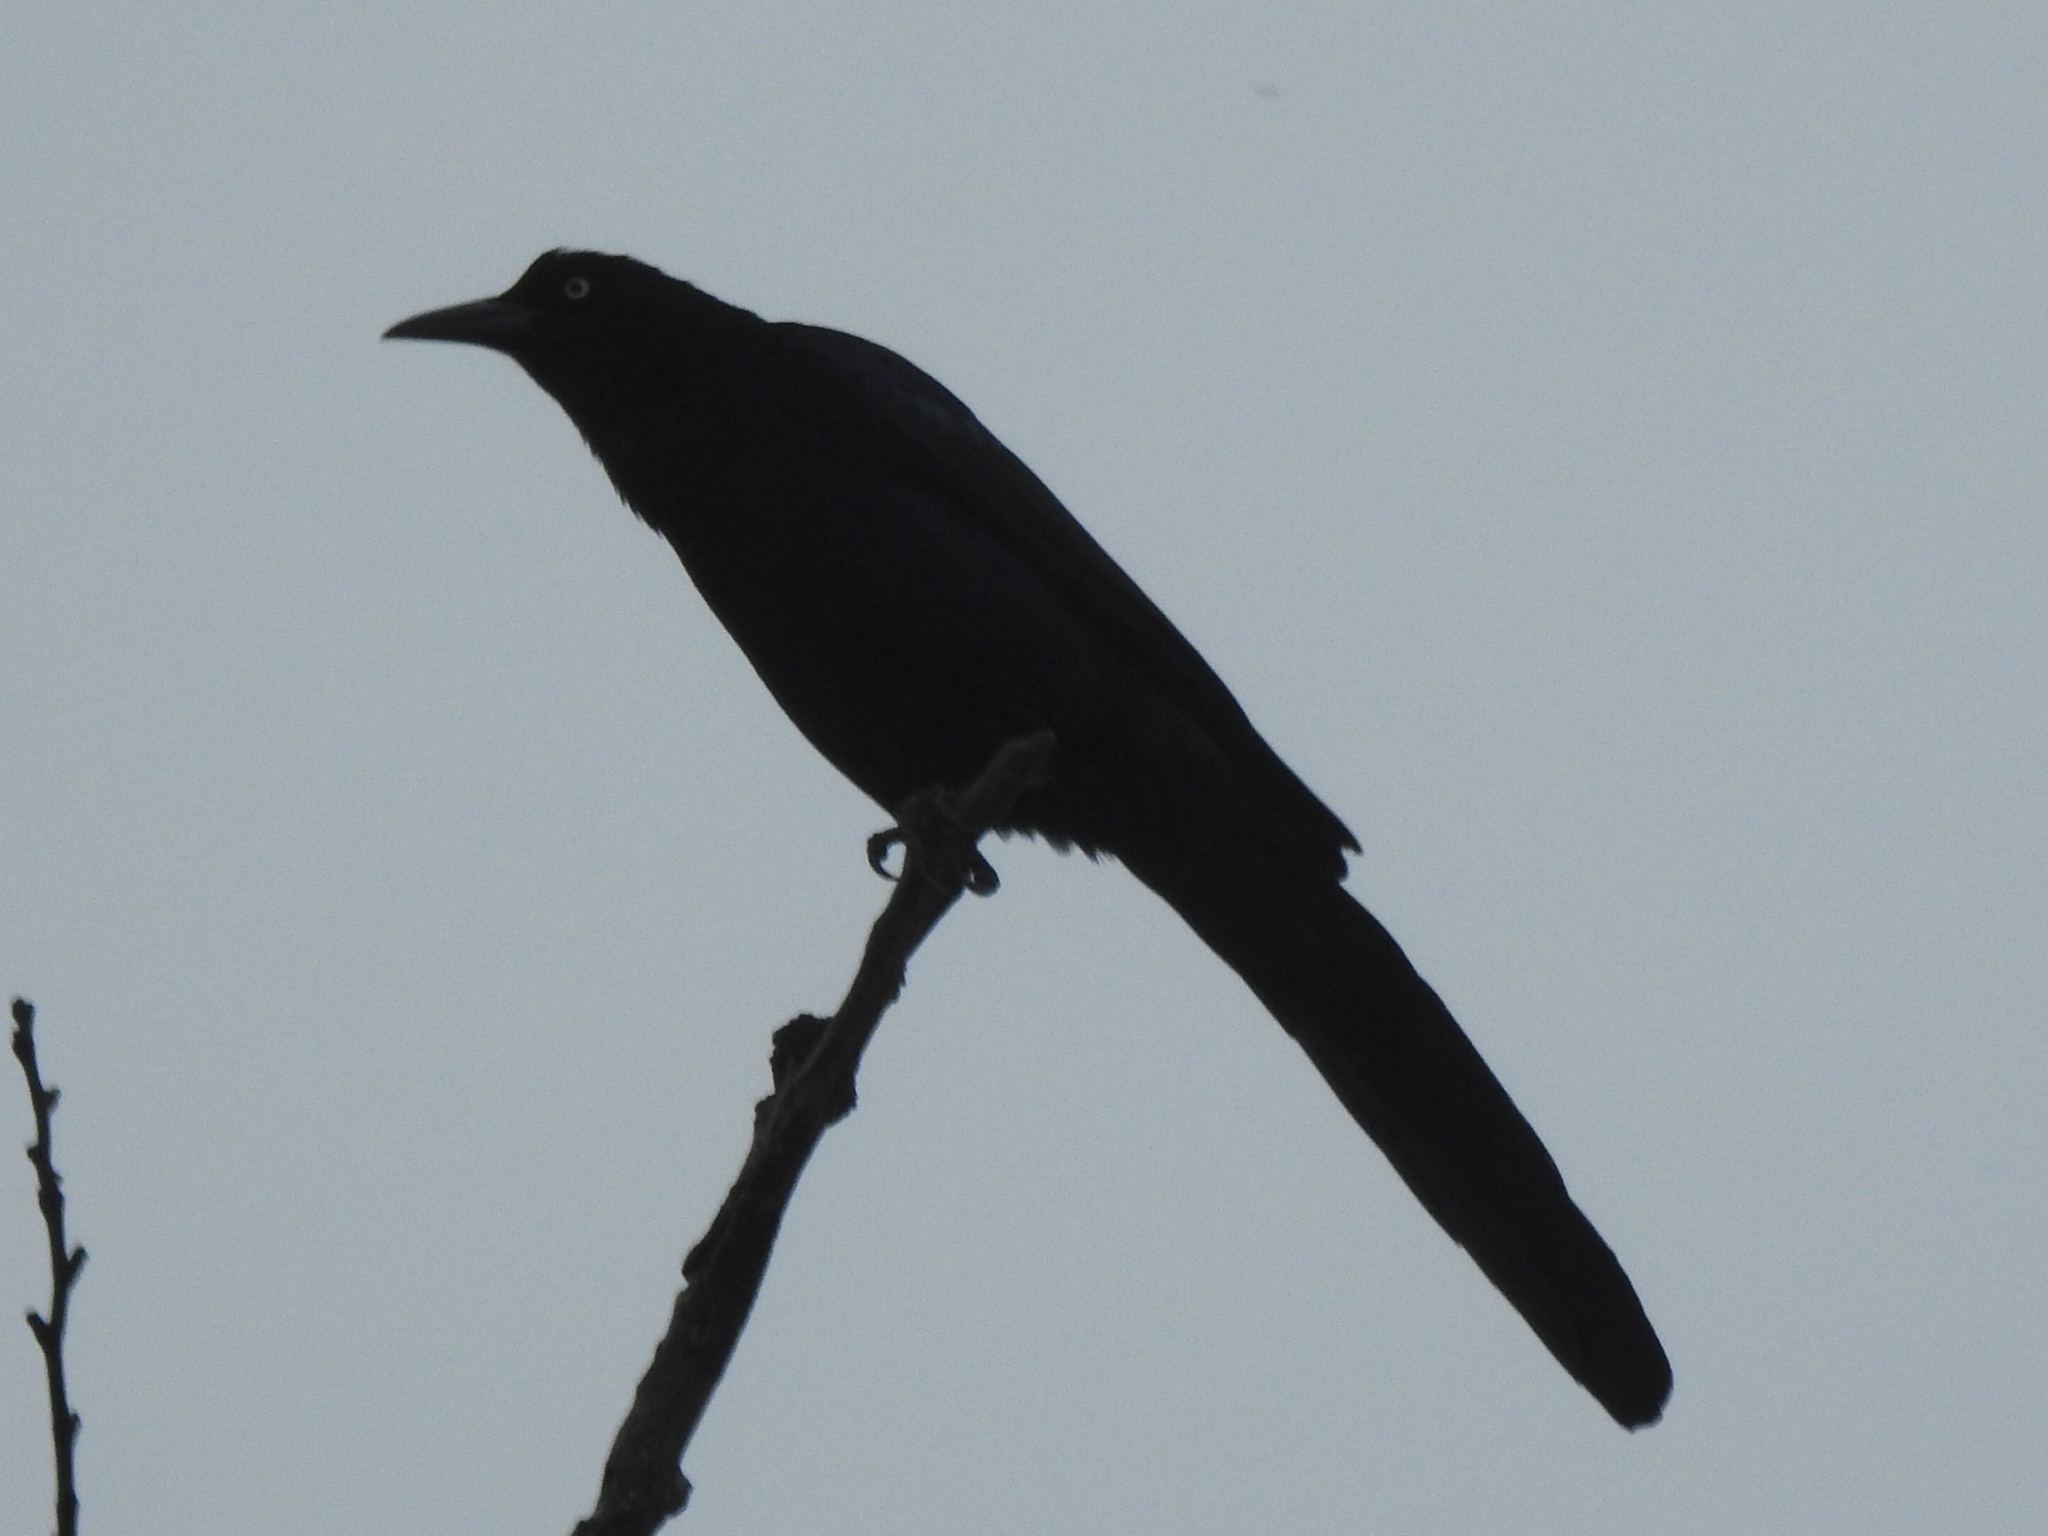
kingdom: Animalia
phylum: Chordata
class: Aves
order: Passeriformes
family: Icteridae
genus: Quiscalus
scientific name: Quiscalus mexicanus
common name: Great-tailed grackle
